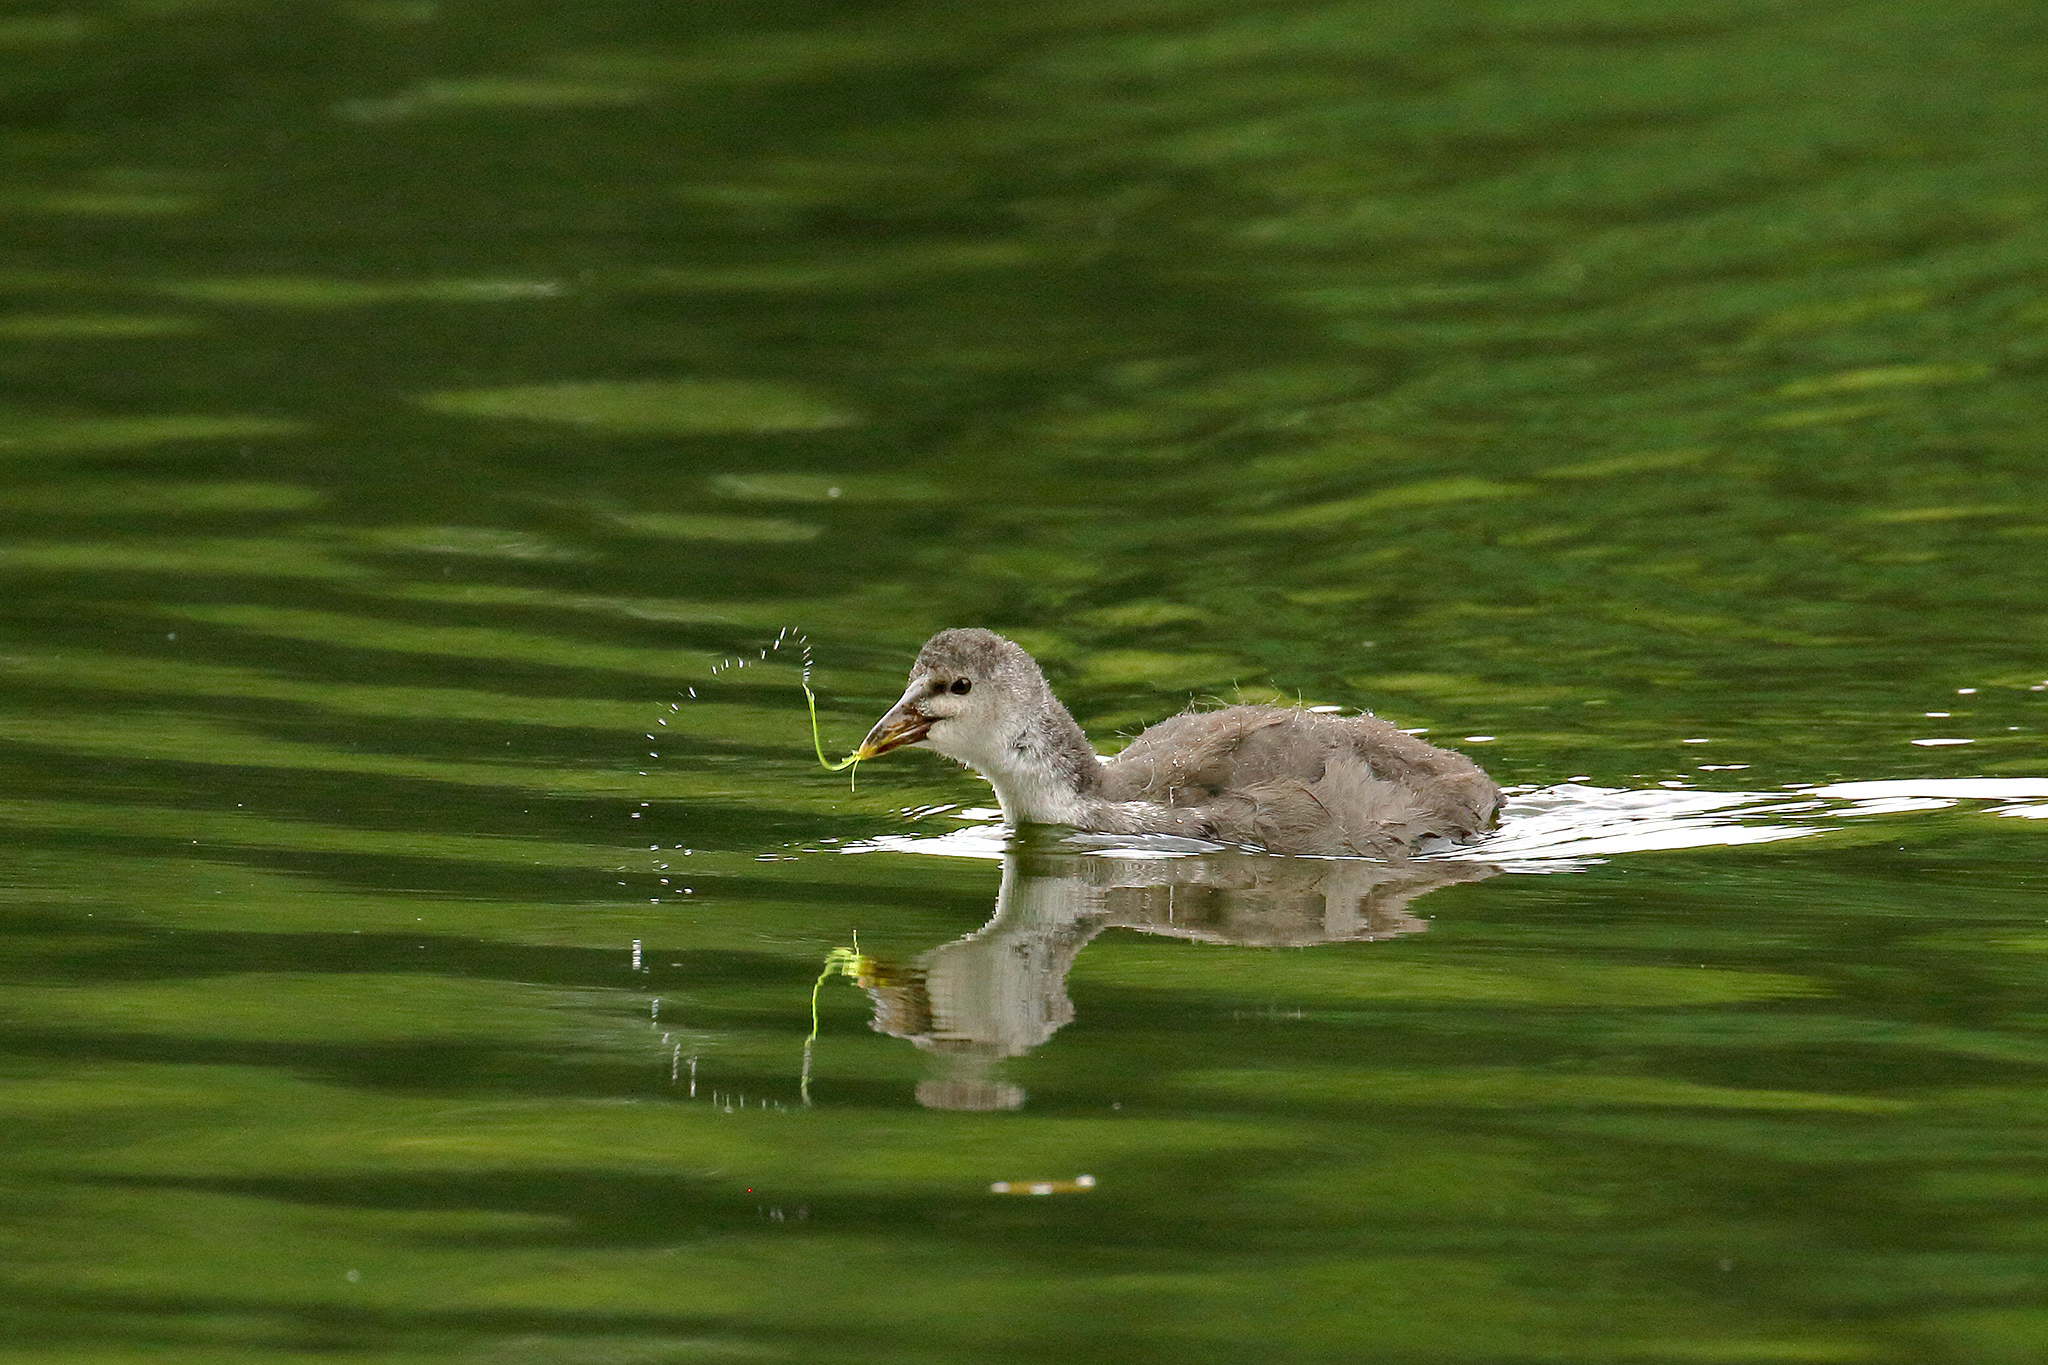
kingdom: Animalia
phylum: Chordata
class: Aves
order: Gruiformes
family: Rallidae
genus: Gallinula
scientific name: Gallinula chloropus
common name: Common moorhen
